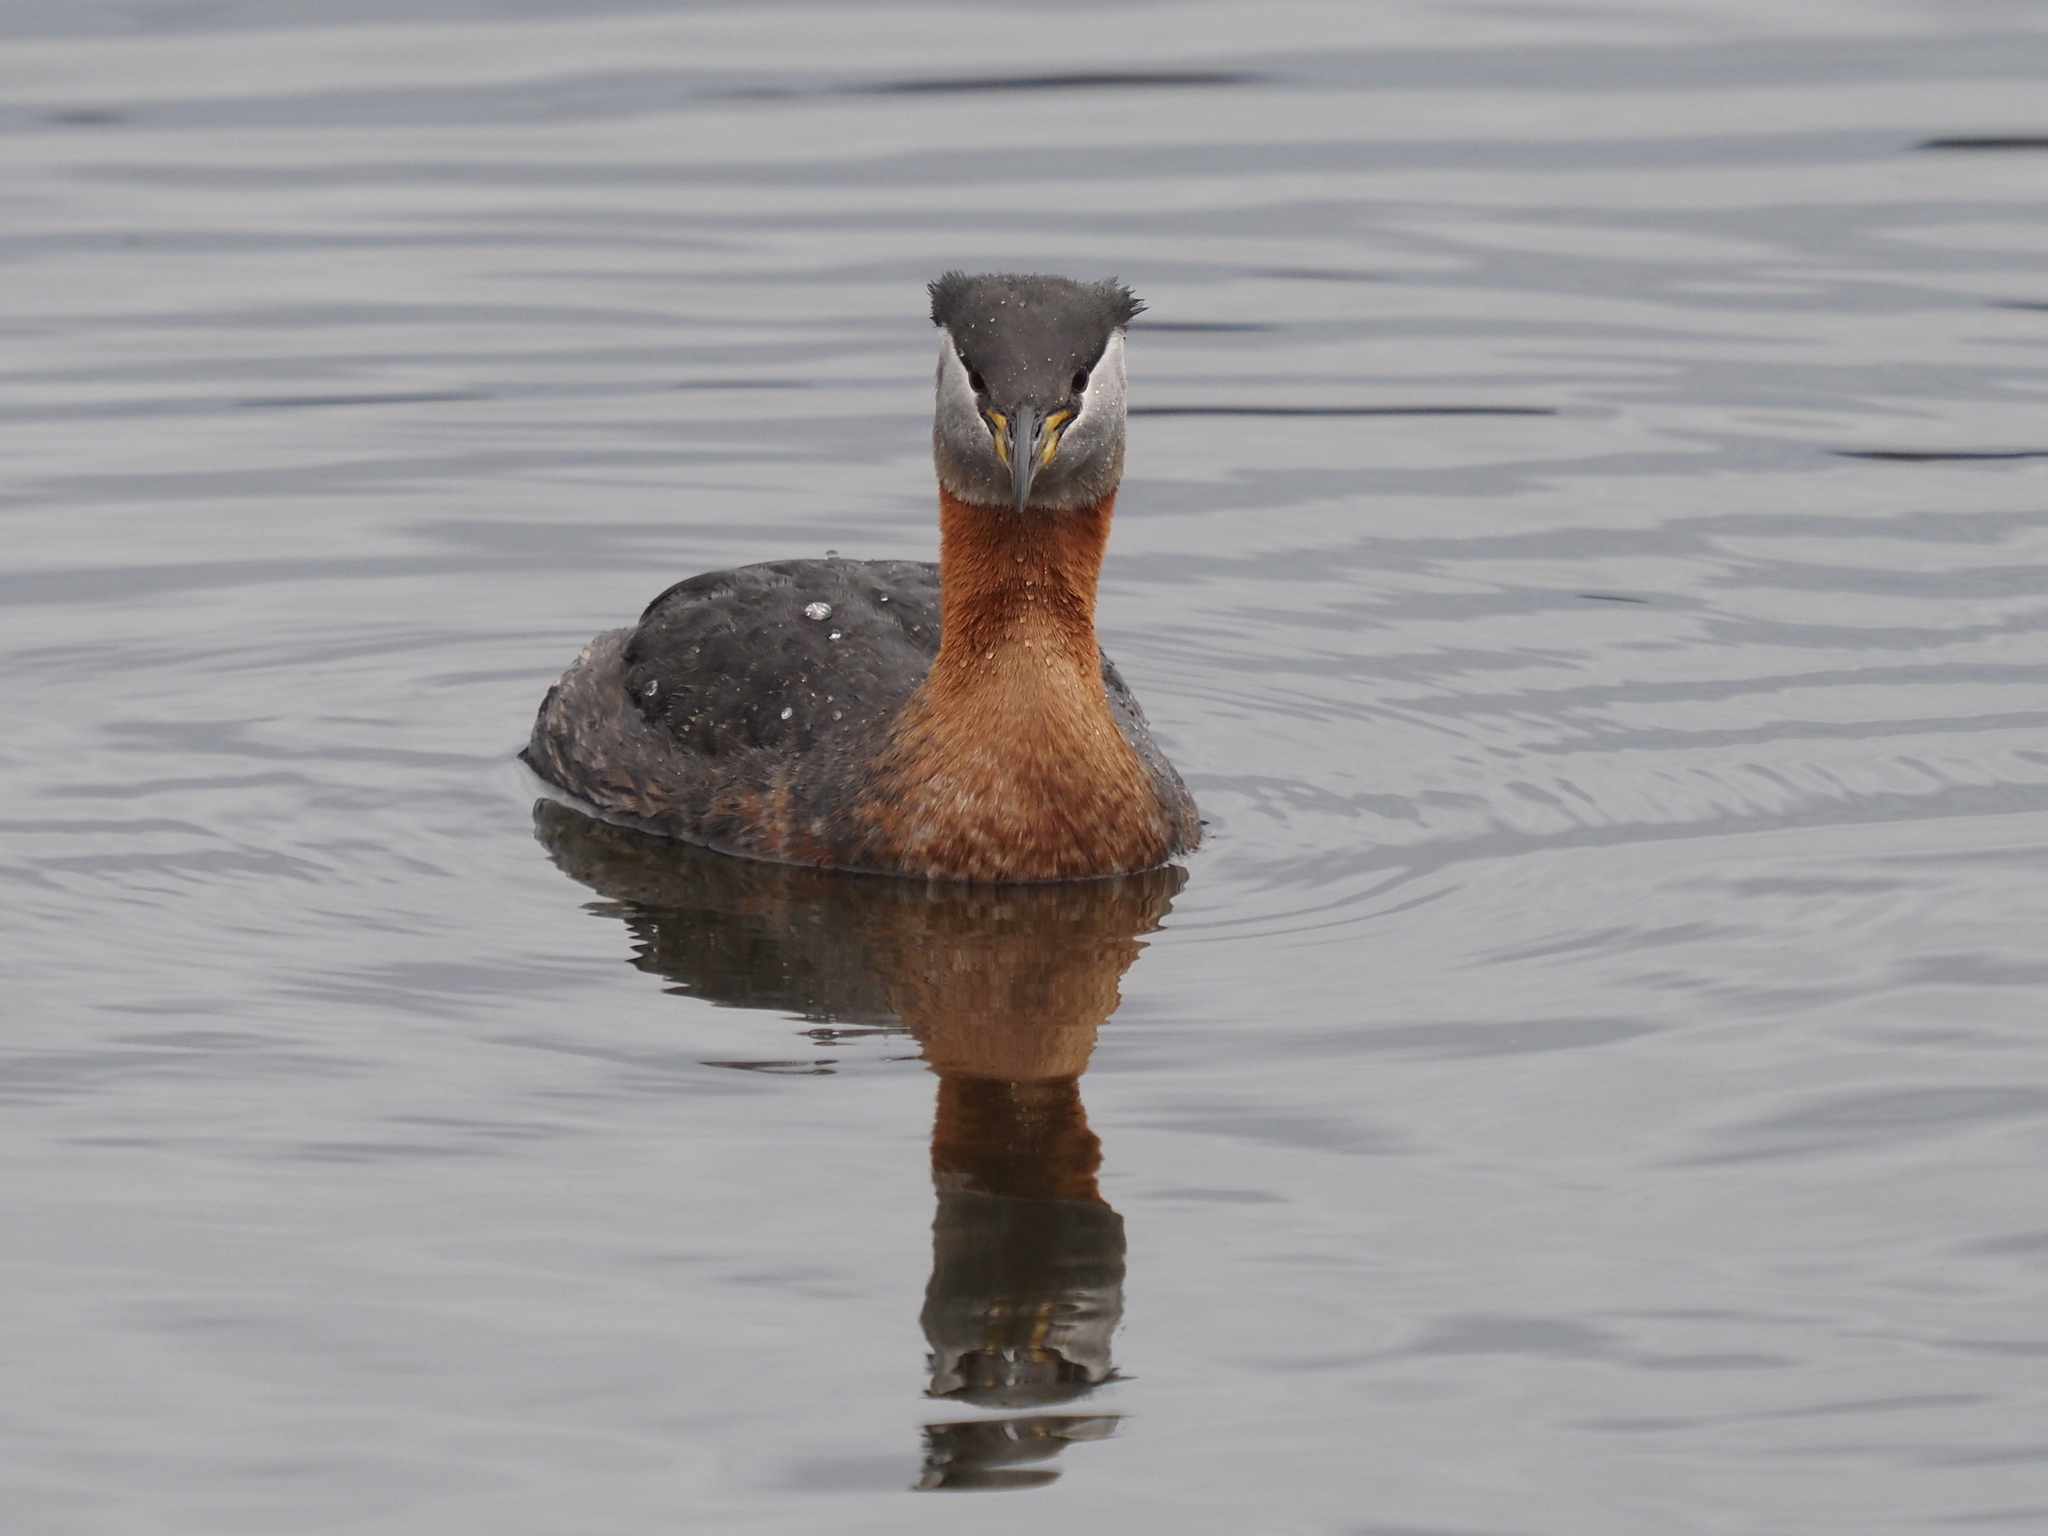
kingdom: Animalia
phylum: Chordata
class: Aves
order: Podicipediformes
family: Podicipedidae
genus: Podiceps
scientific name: Podiceps grisegena
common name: Red-necked grebe
